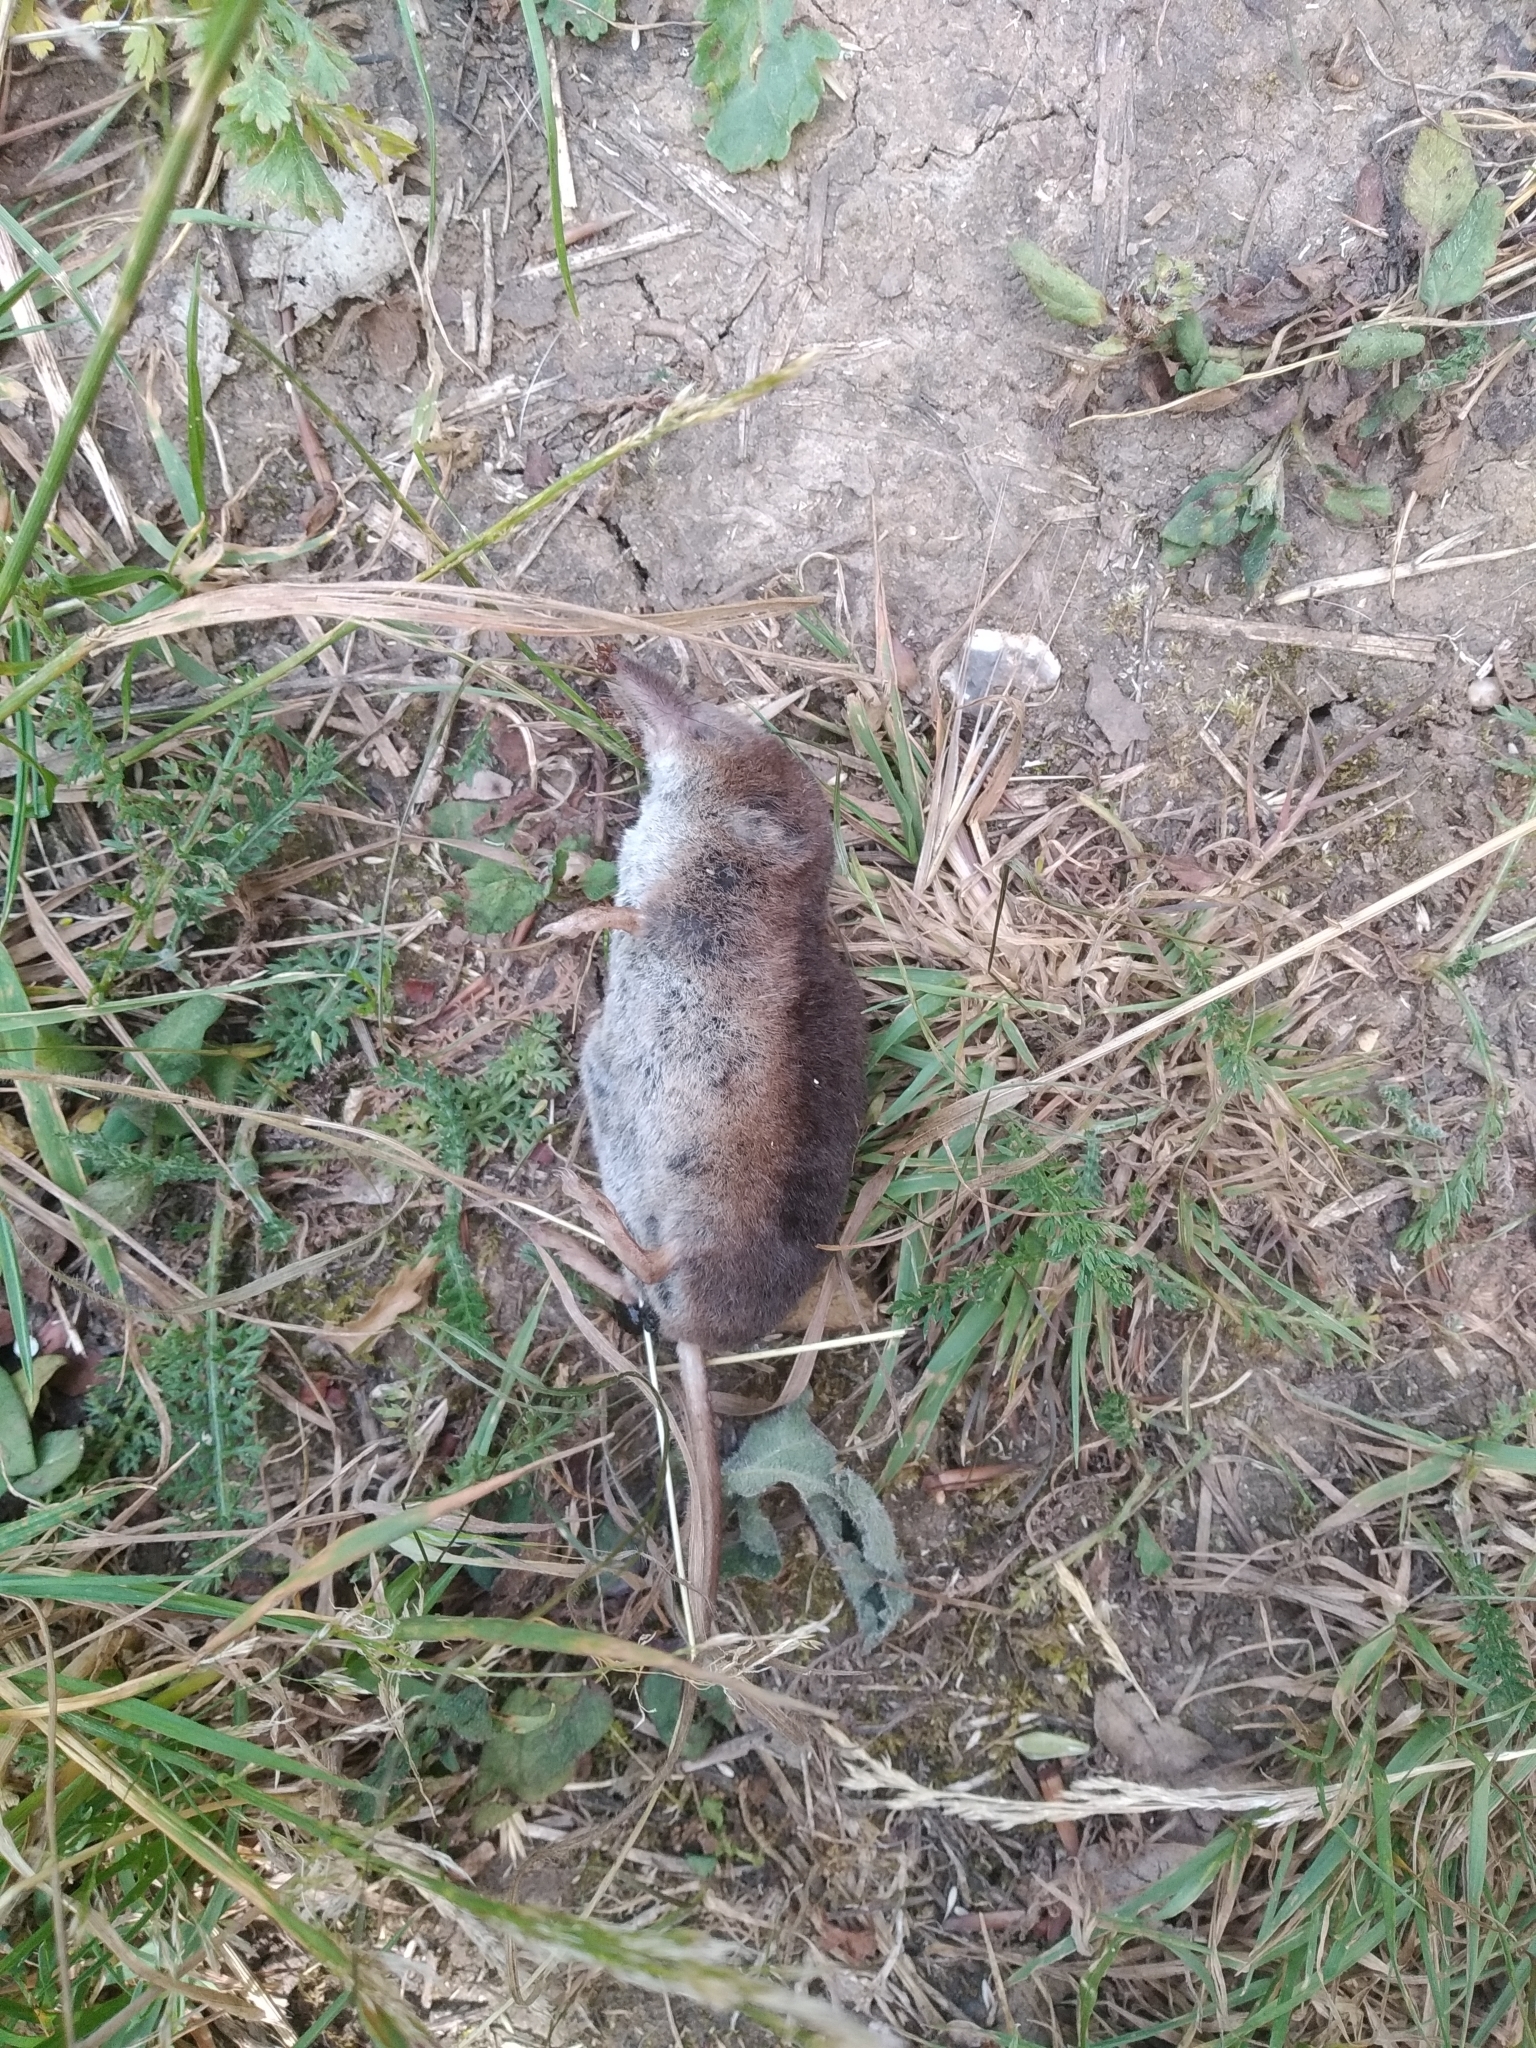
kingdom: Animalia
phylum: Chordata
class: Mammalia
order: Soricomorpha
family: Soricidae
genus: Sorex
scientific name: Sorex araneus
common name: Common shrew
